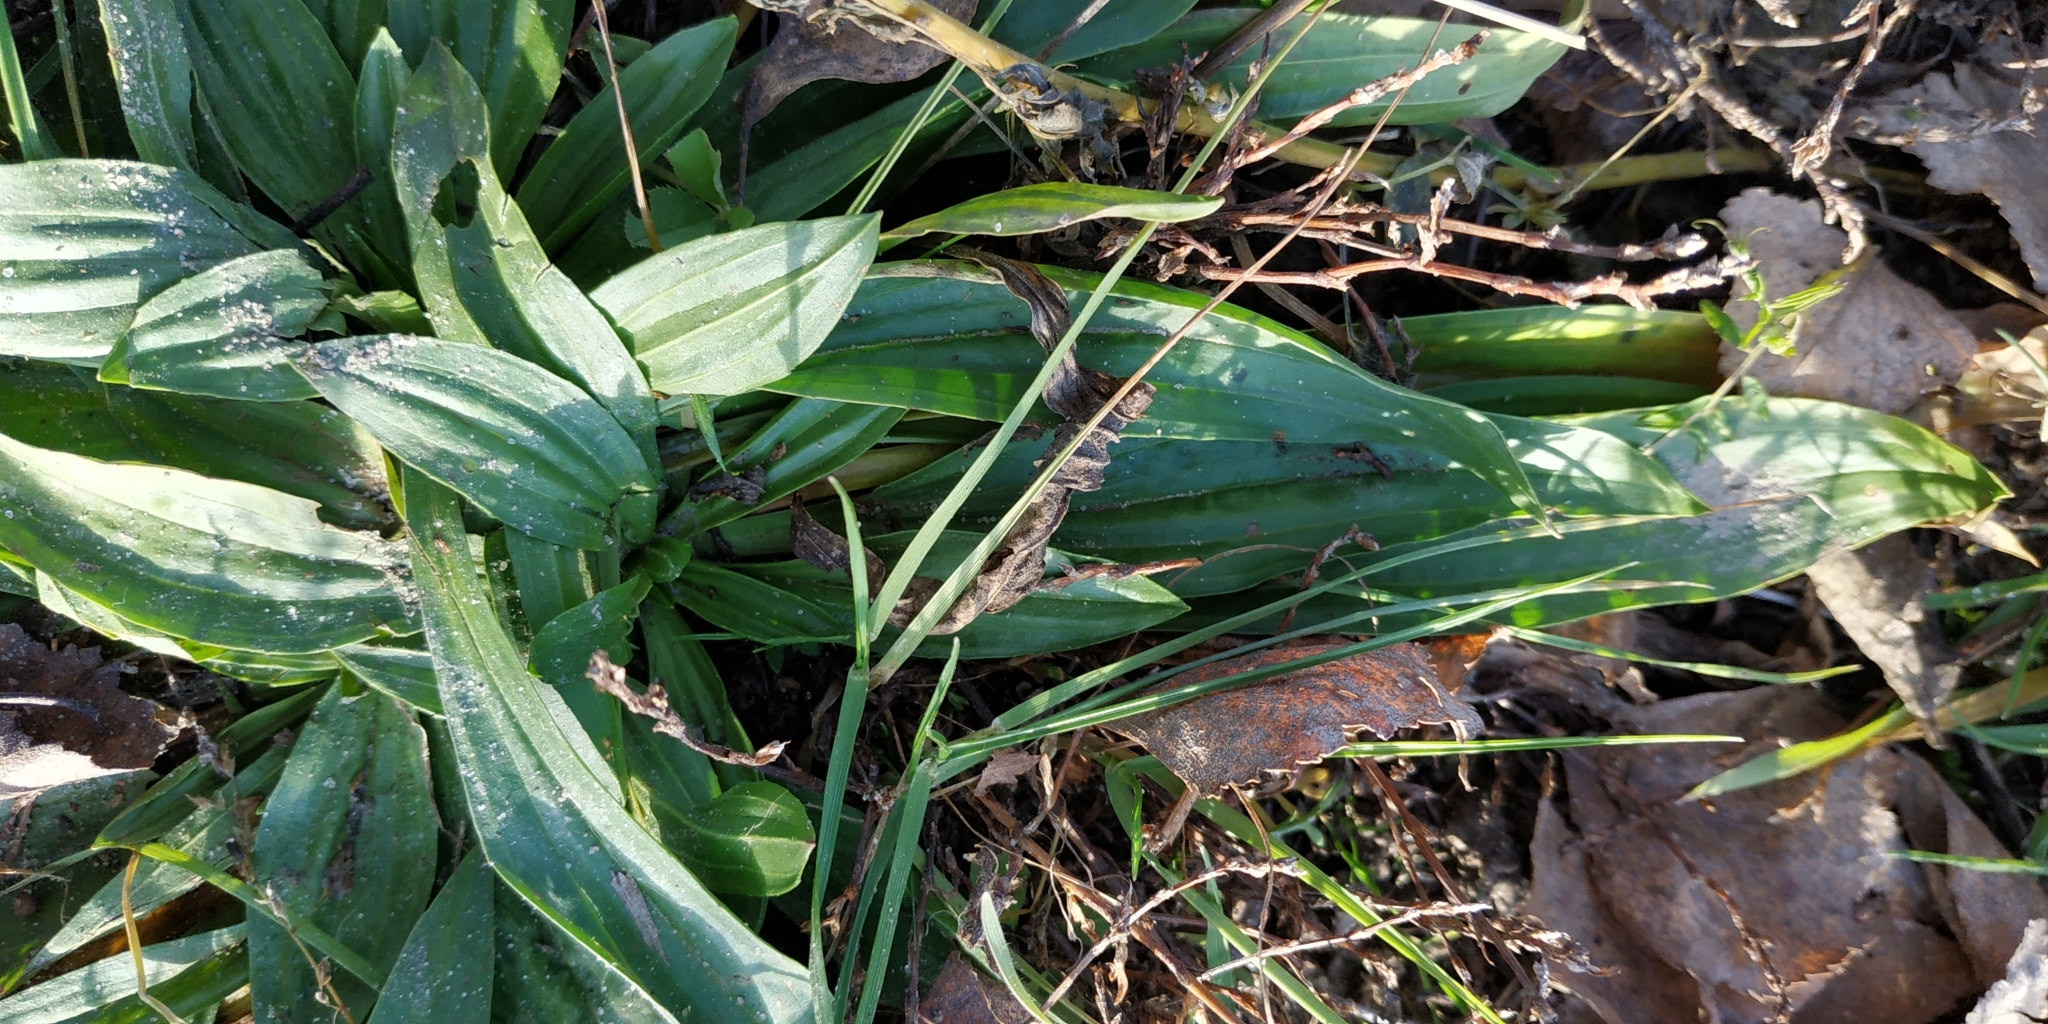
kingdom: Plantae
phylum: Tracheophyta
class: Magnoliopsida
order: Lamiales
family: Plantaginaceae
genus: Plantago
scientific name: Plantago lanceolata
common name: Ribwort plantain
